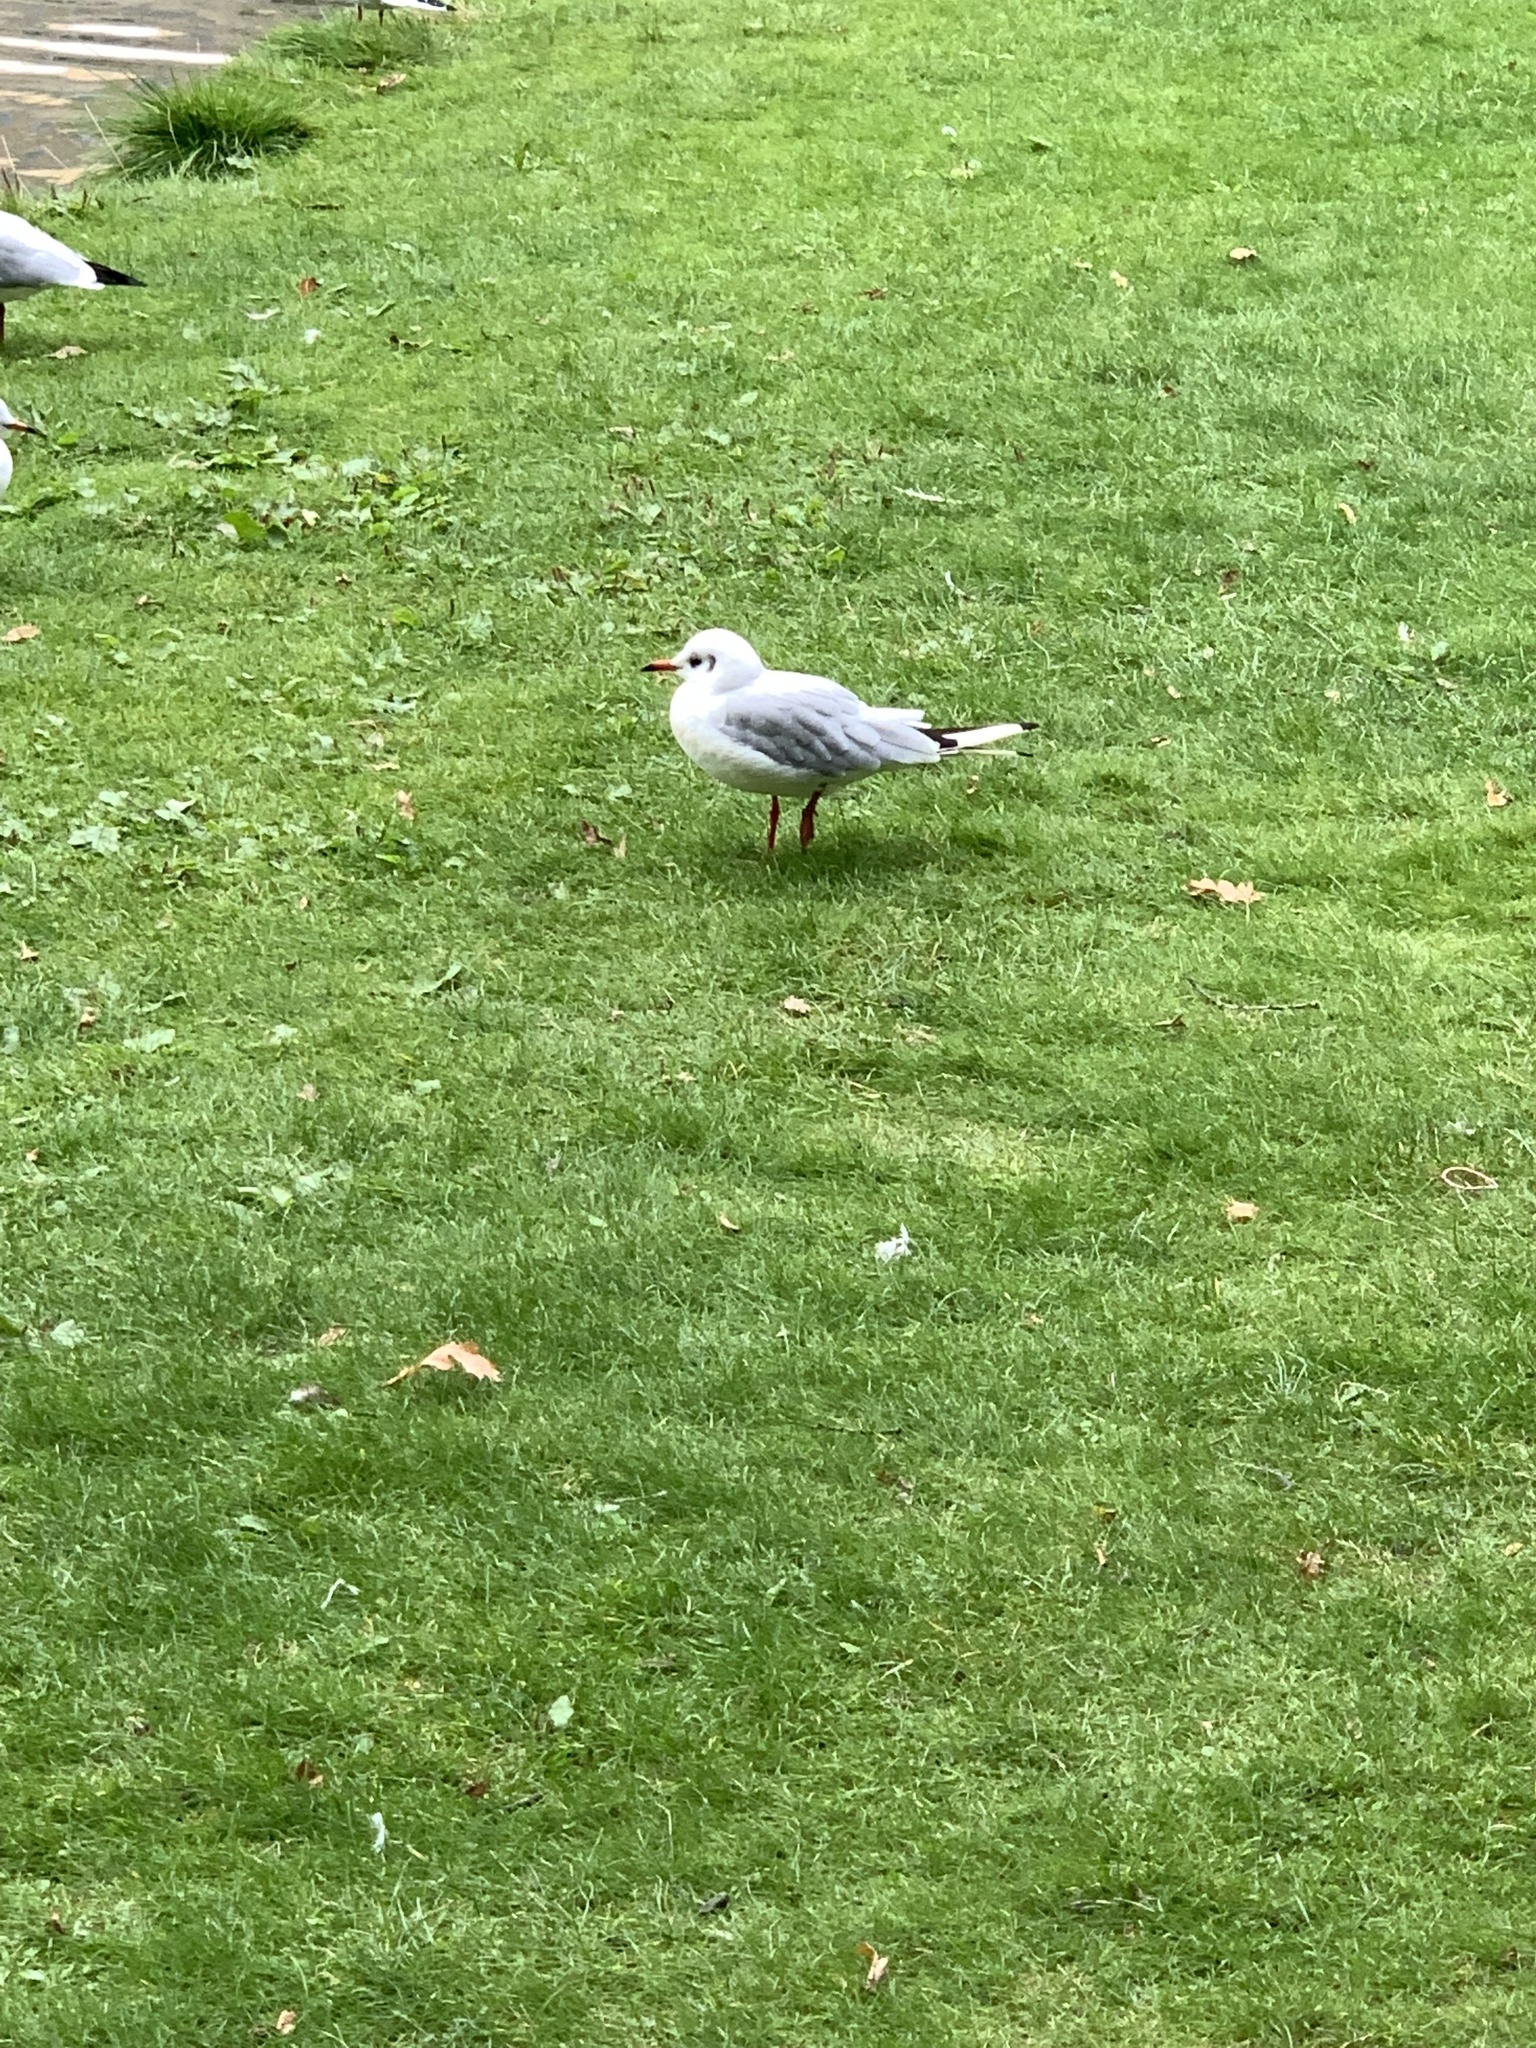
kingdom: Animalia
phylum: Chordata
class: Aves
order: Charadriiformes
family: Laridae
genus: Chroicocephalus
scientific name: Chroicocephalus ridibundus
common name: Black-headed gull
